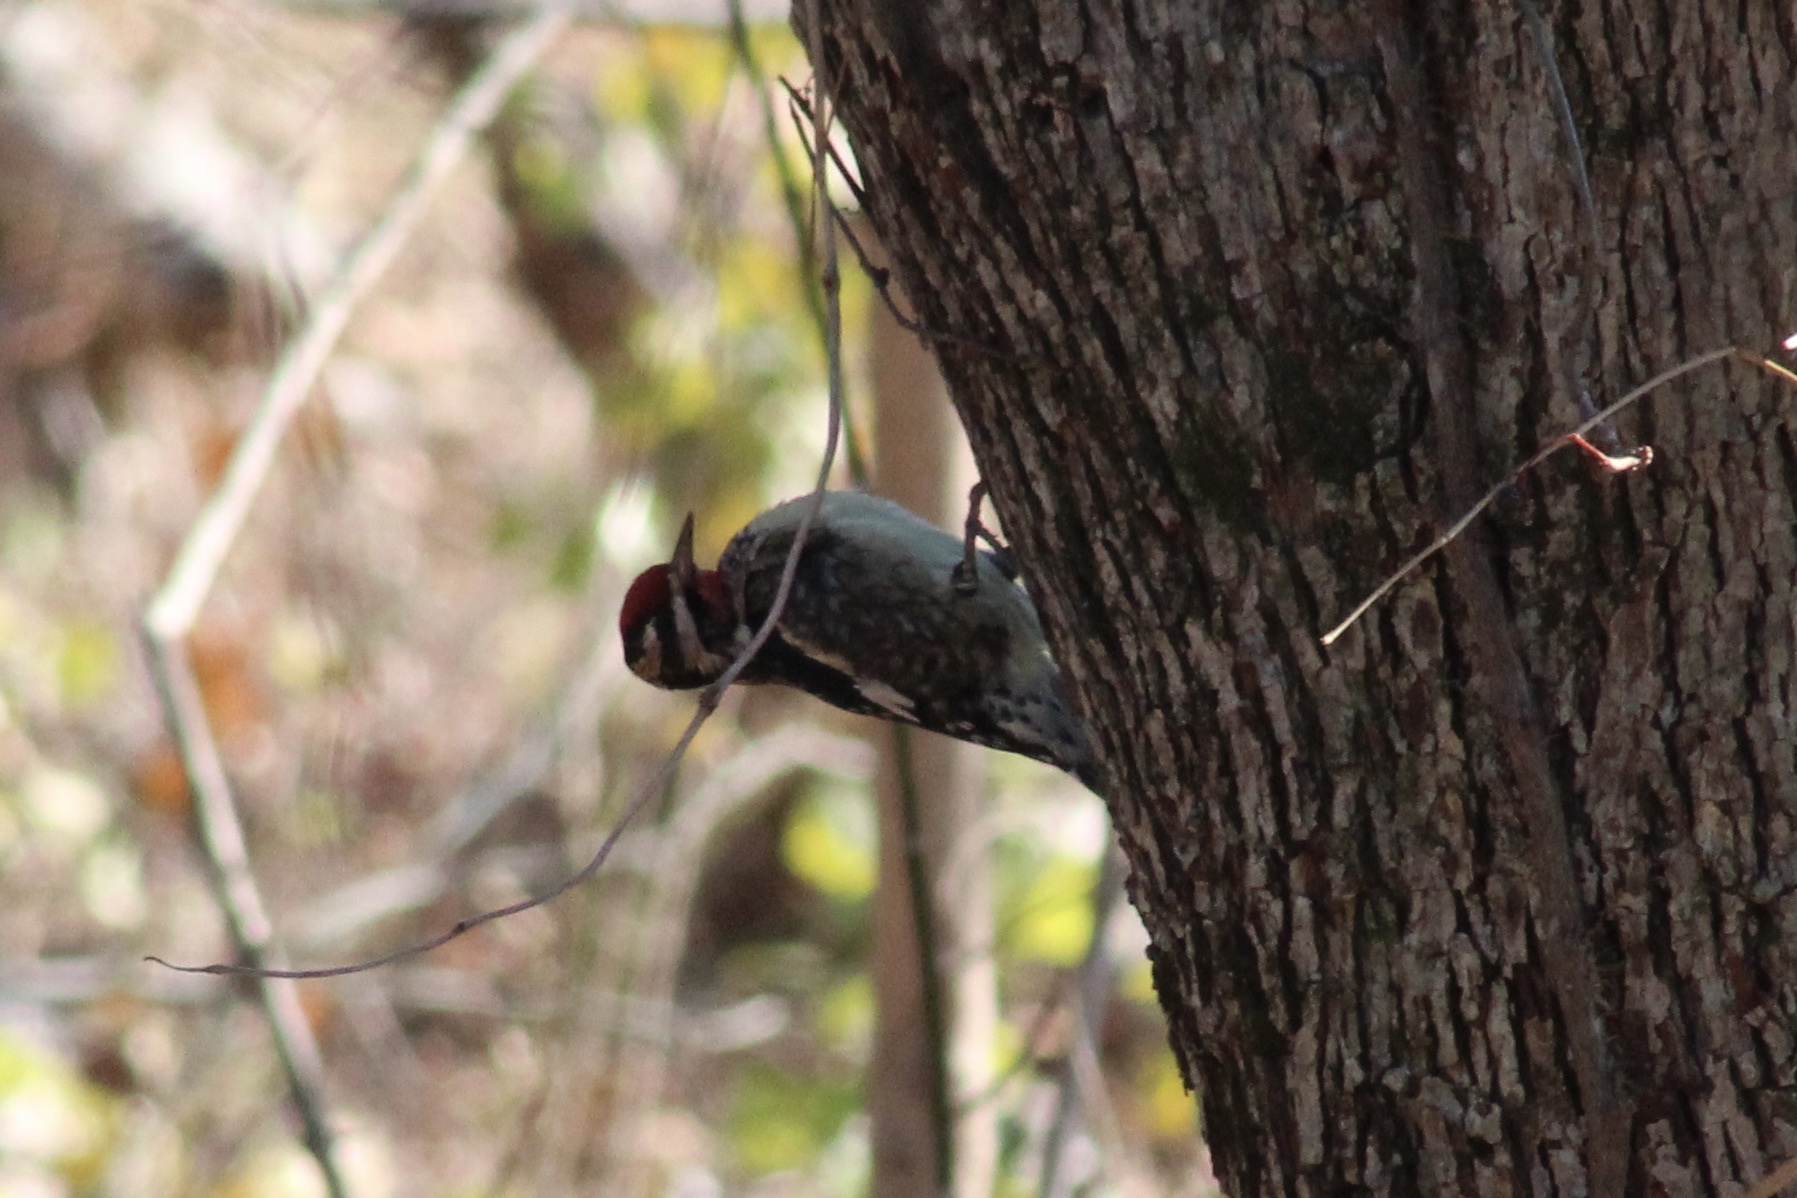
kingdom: Animalia
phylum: Chordata
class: Aves
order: Piciformes
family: Picidae
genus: Sphyrapicus
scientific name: Sphyrapicus varius
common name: Yellow-bellied sapsucker
